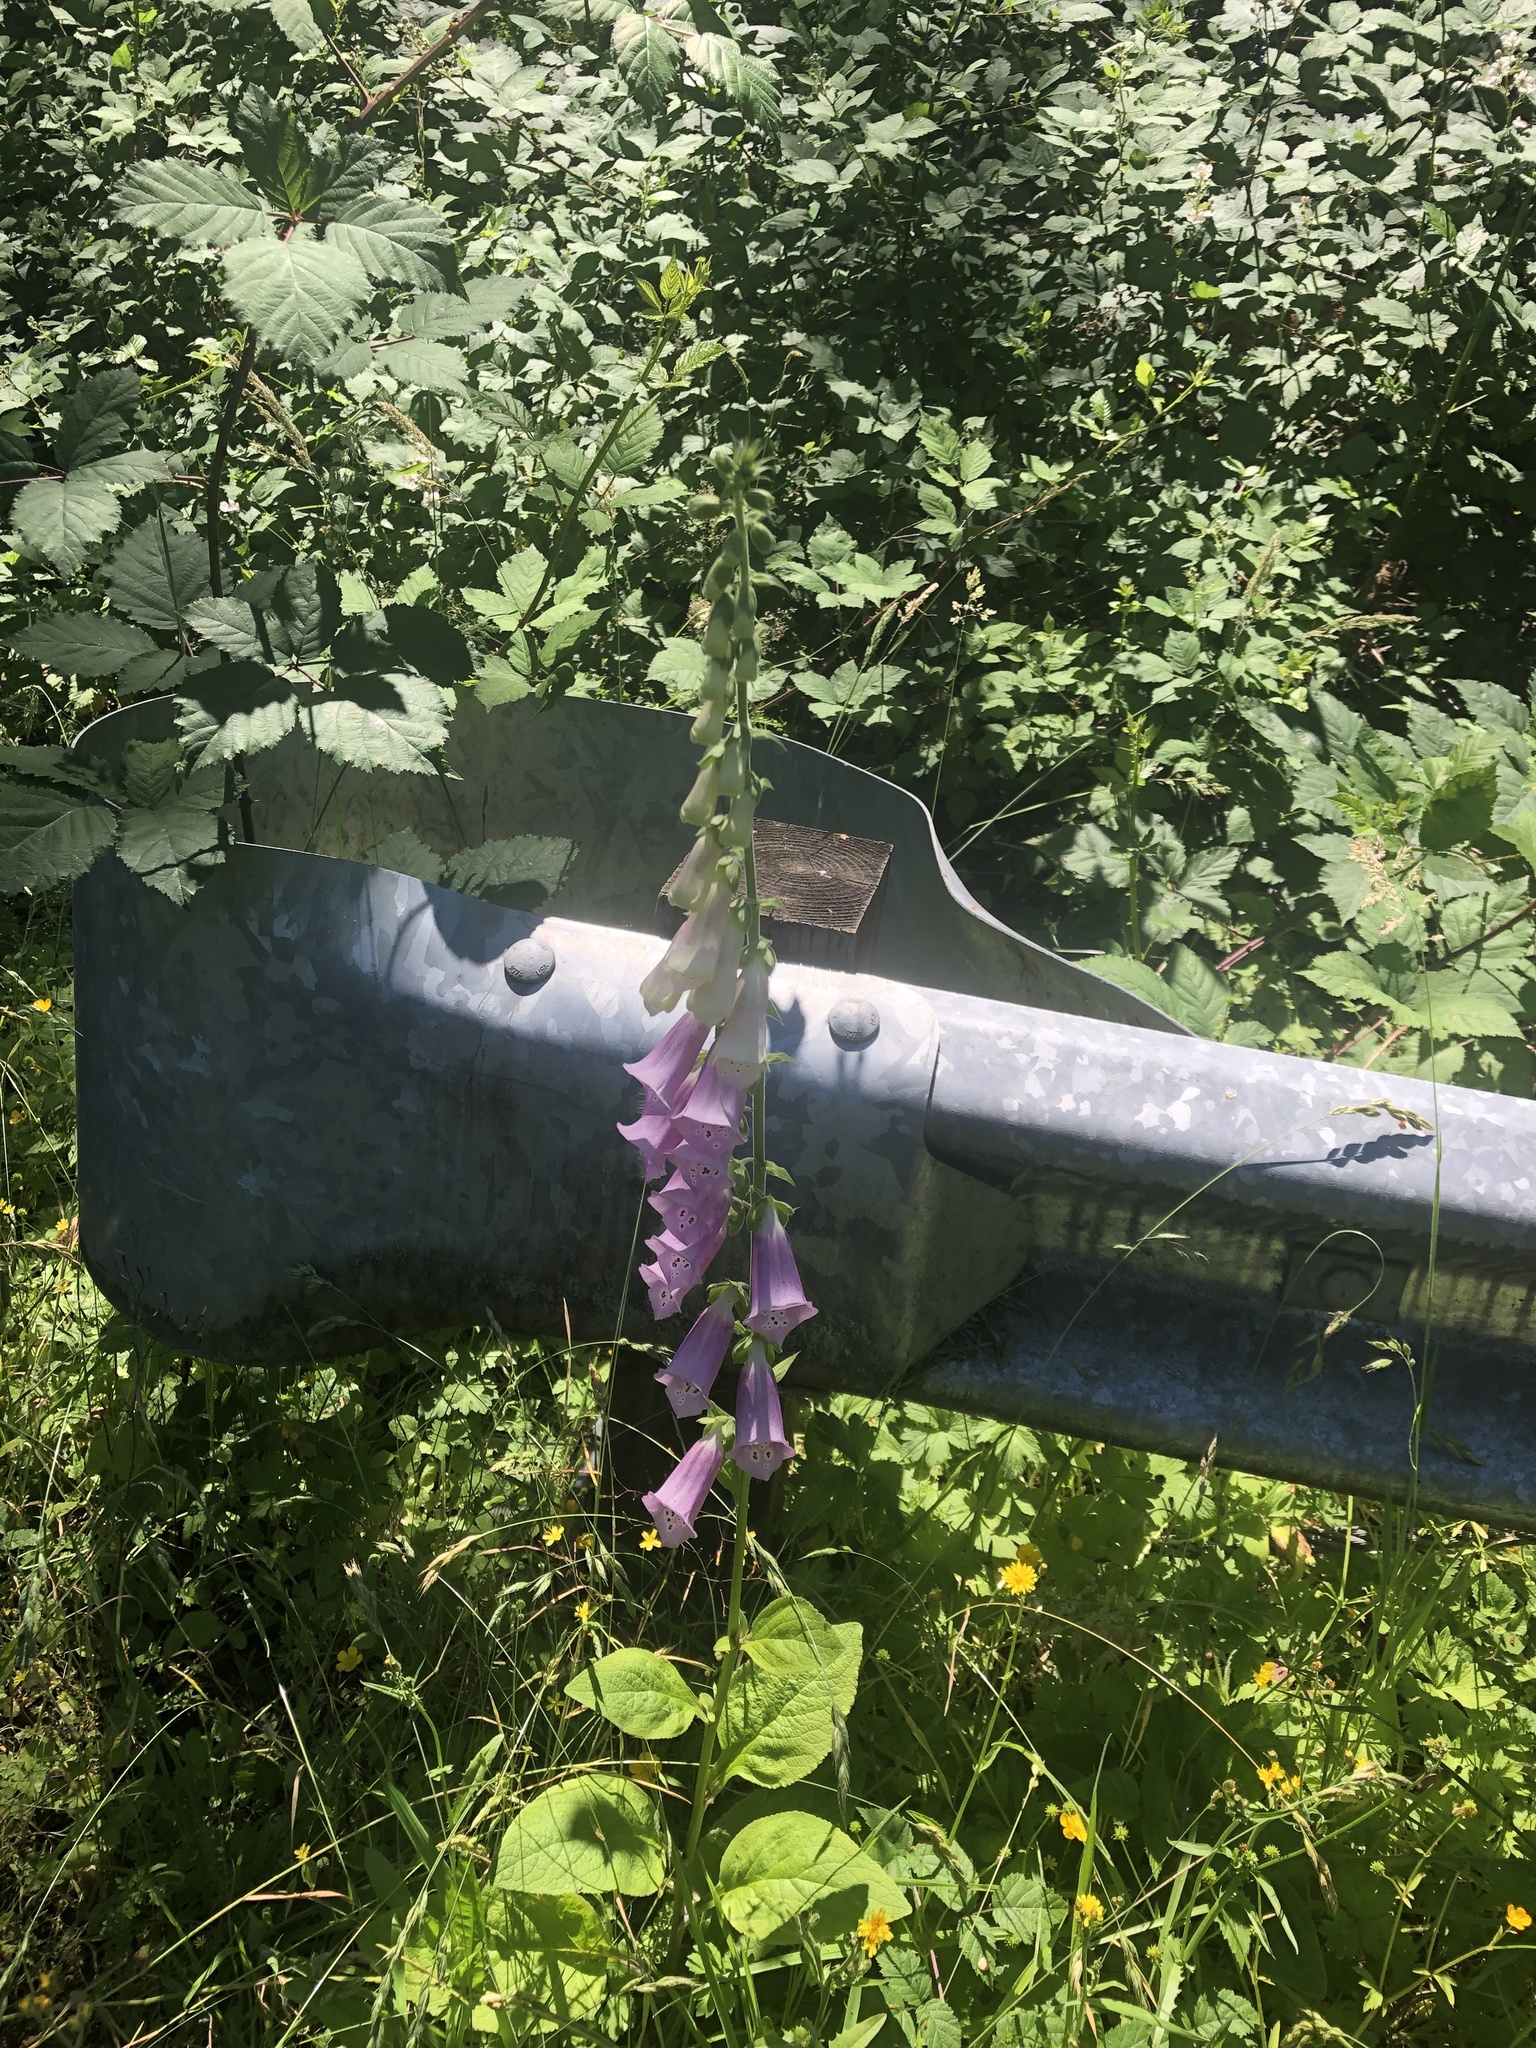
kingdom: Plantae
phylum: Tracheophyta
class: Magnoliopsida
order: Lamiales
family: Plantaginaceae
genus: Digitalis
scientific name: Digitalis purpurea
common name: Foxglove
